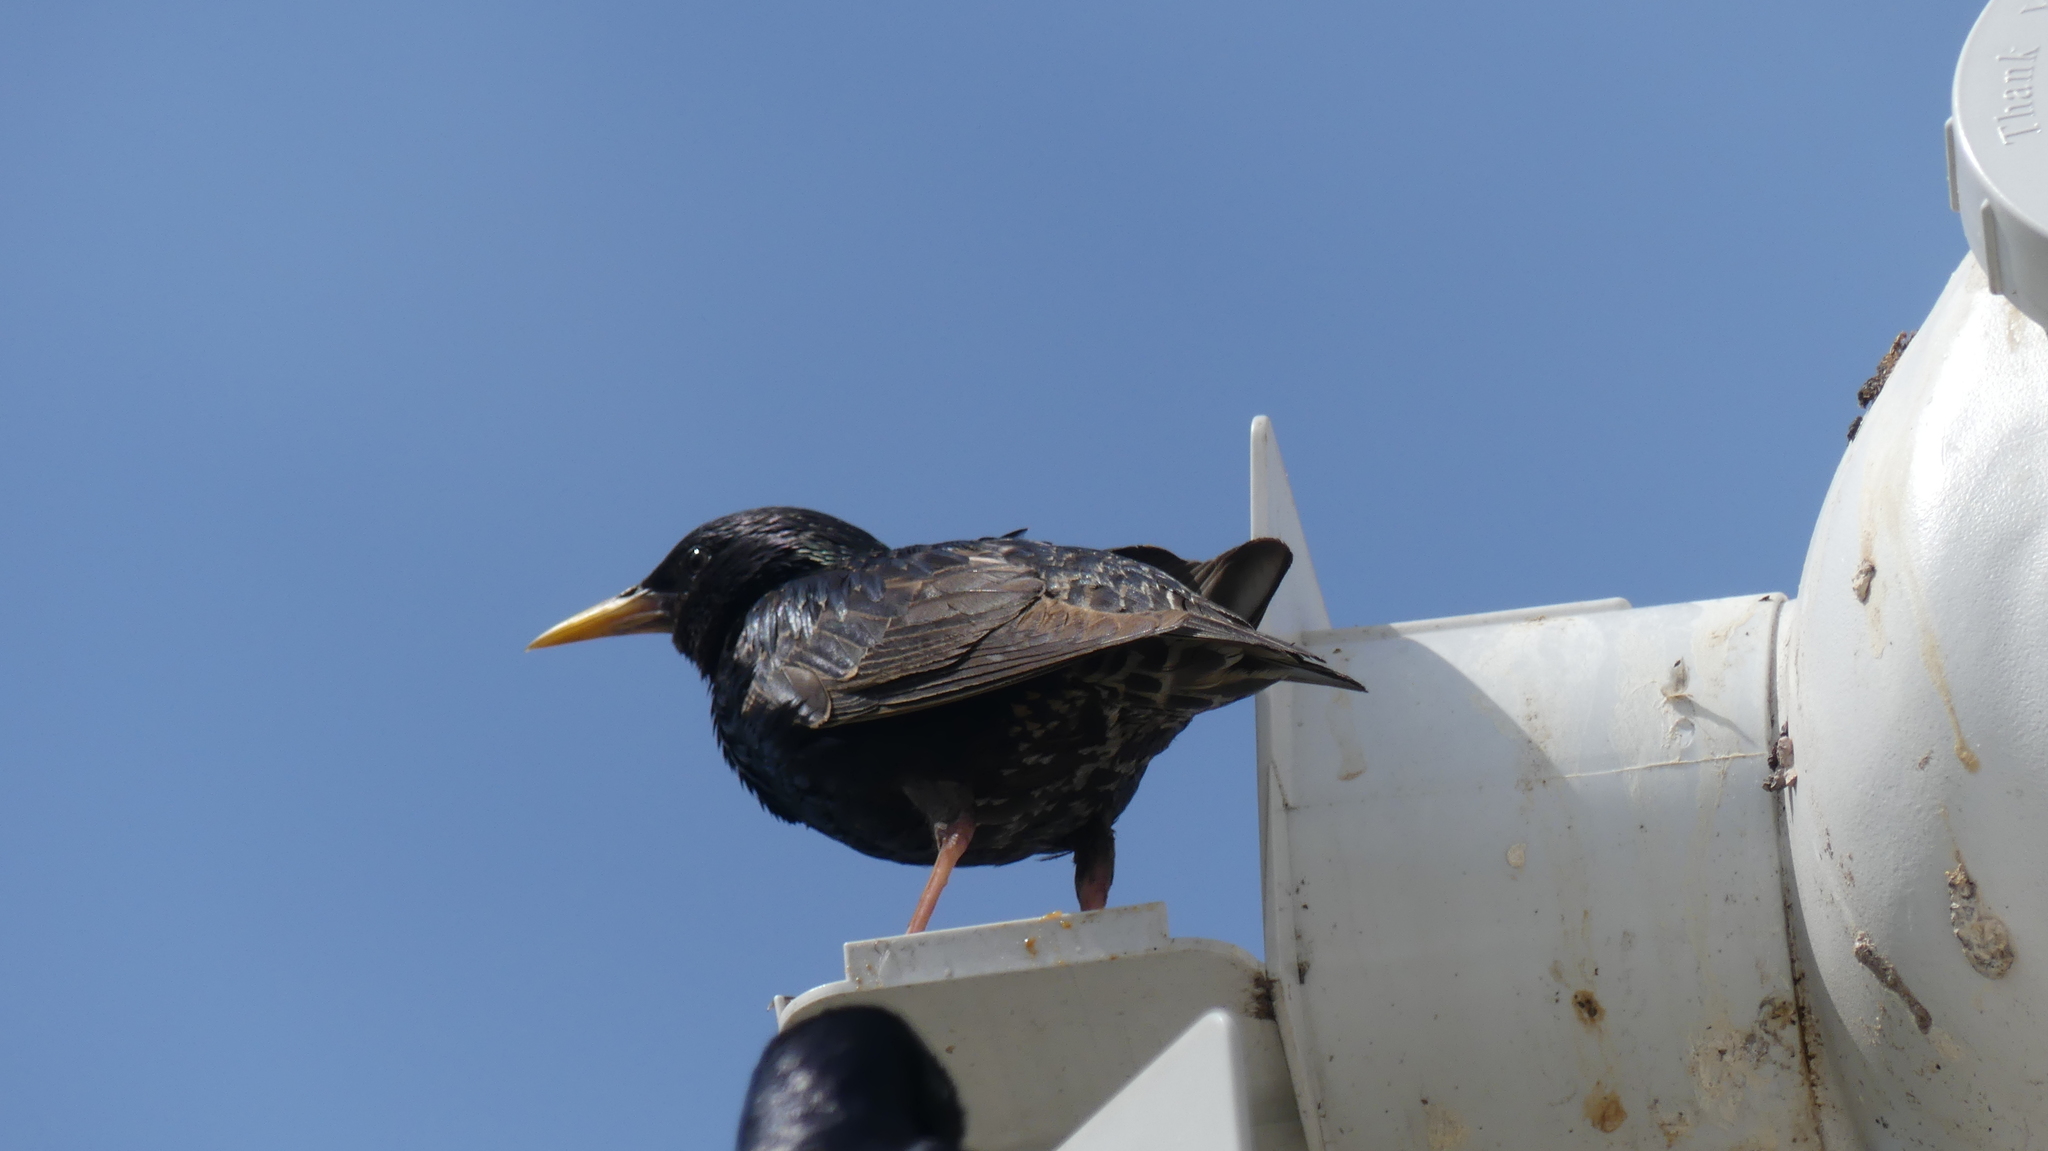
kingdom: Animalia
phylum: Chordata
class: Aves
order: Passeriformes
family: Sturnidae
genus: Sturnus
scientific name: Sturnus vulgaris
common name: Common starling
